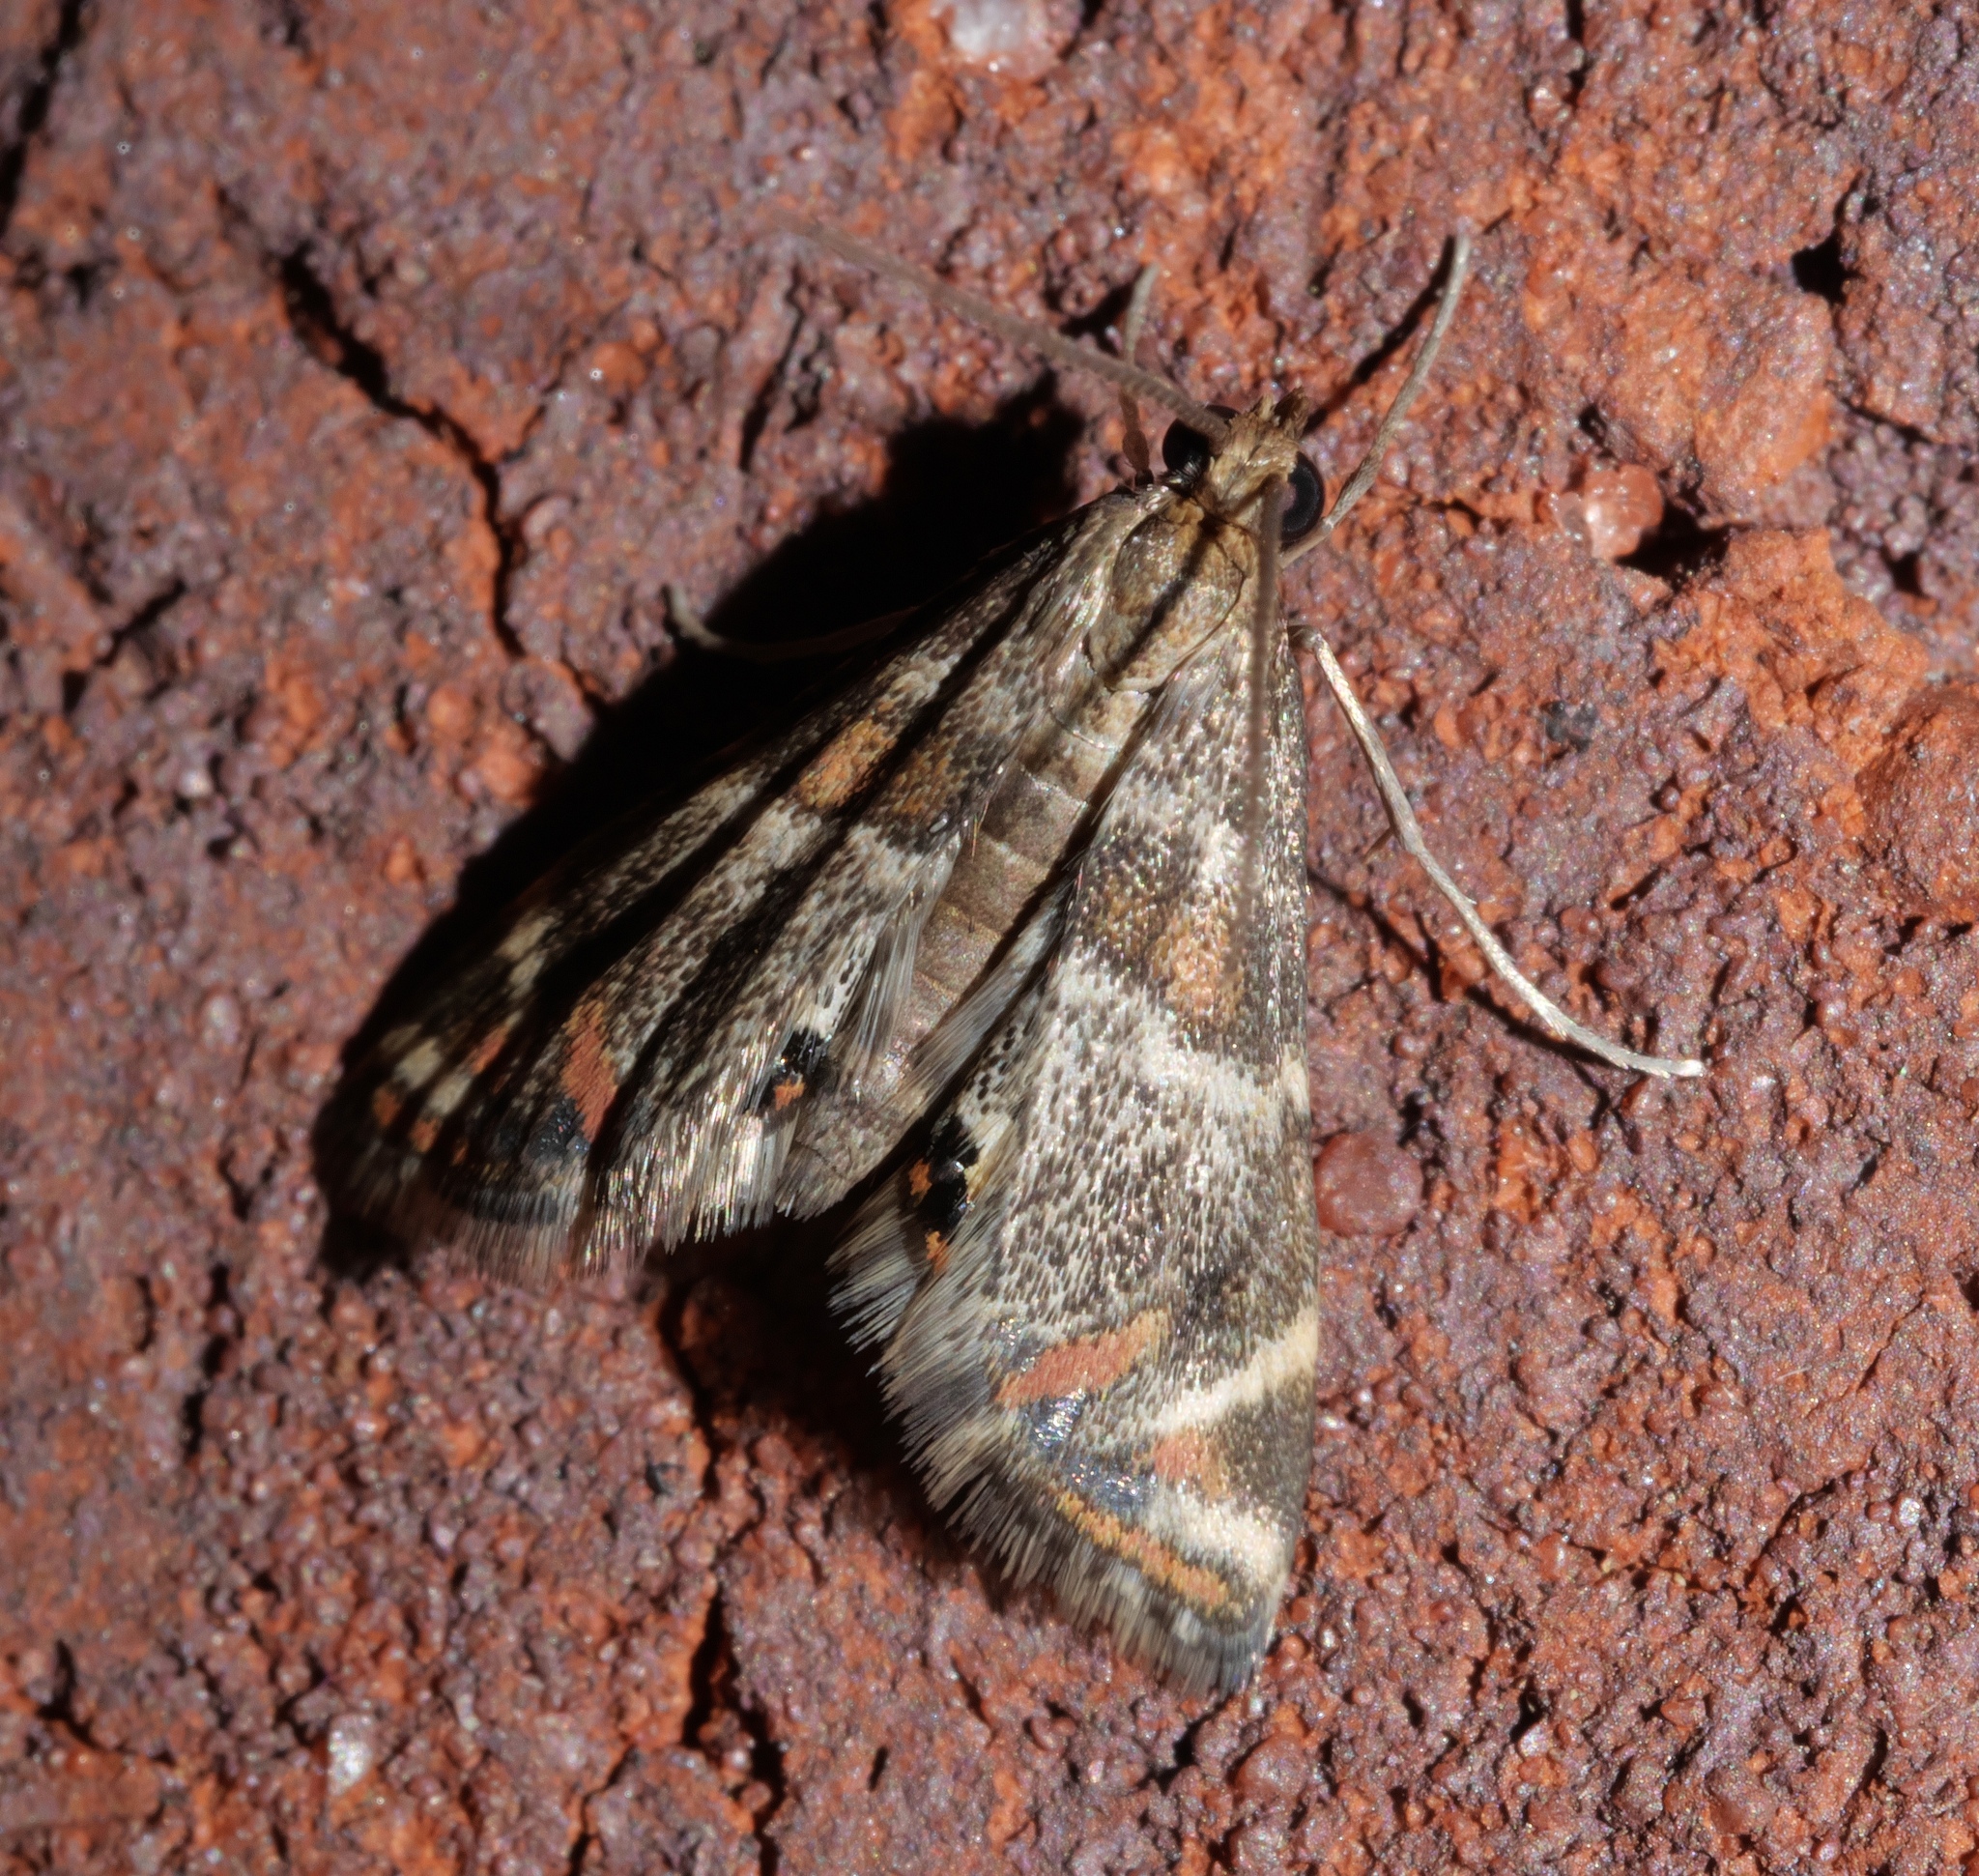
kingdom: Animalia
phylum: Arthropoda
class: Insecta
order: Lepidoptera
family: Crambidae
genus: Petrophila
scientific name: Petrophila jaliscalis
